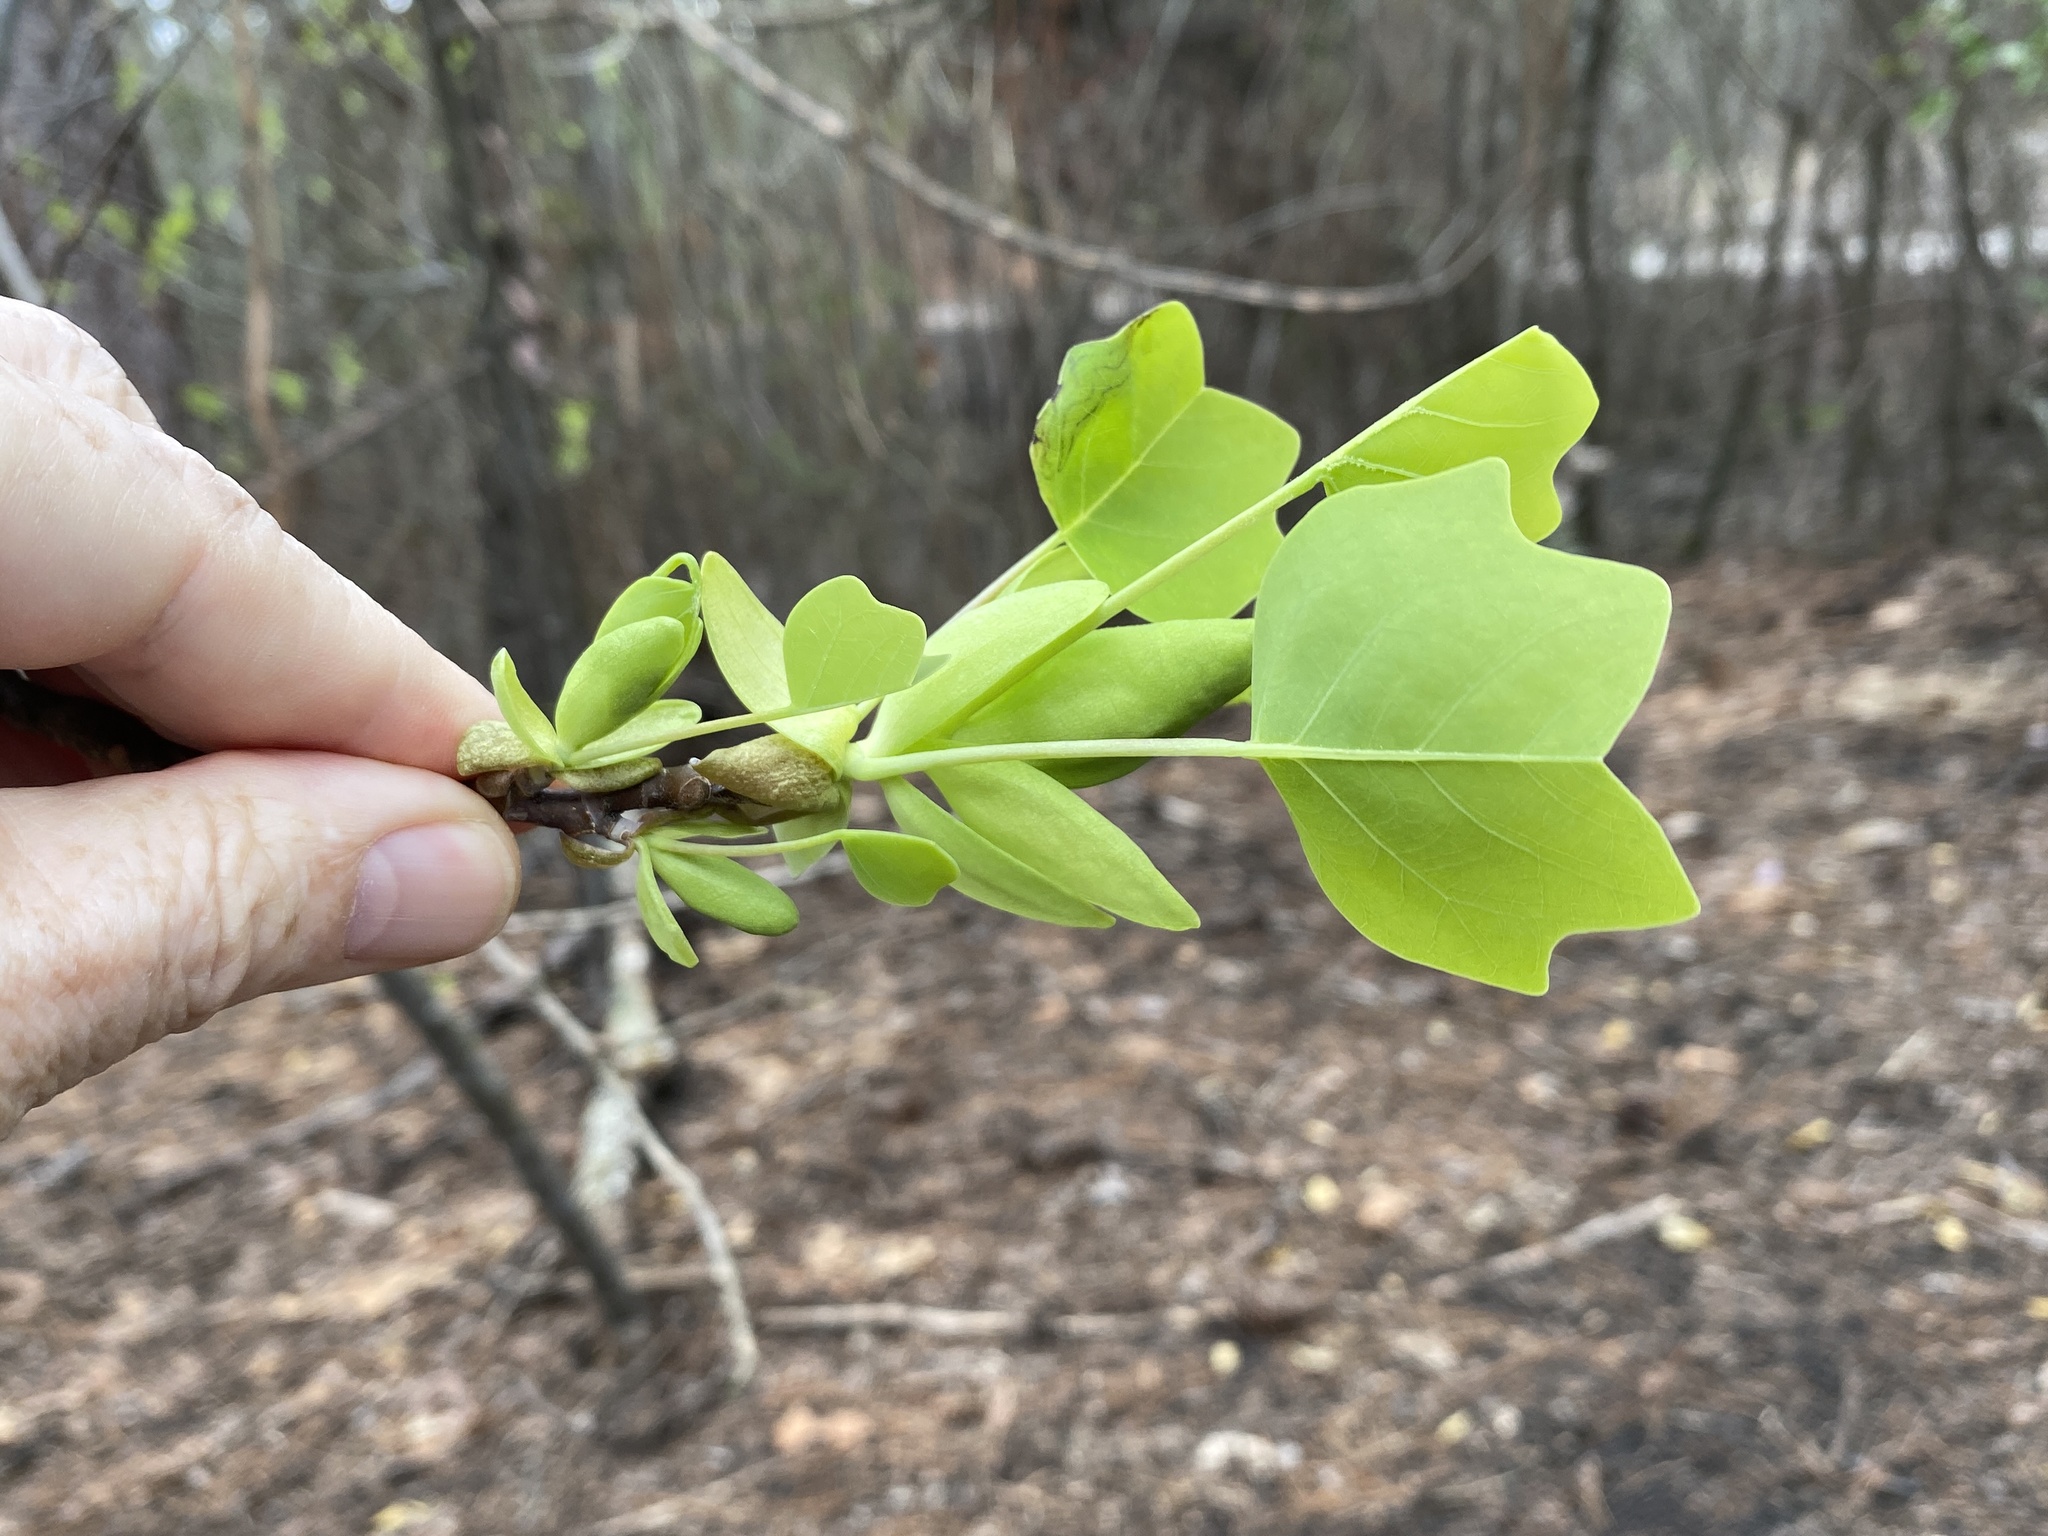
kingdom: Plantae
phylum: Tracheophyta
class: Magnoliopsida
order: Magnoliales
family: Magnoliaceae
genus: Liriodendron
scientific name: Liriodendron tulipifera
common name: Tulip tree
